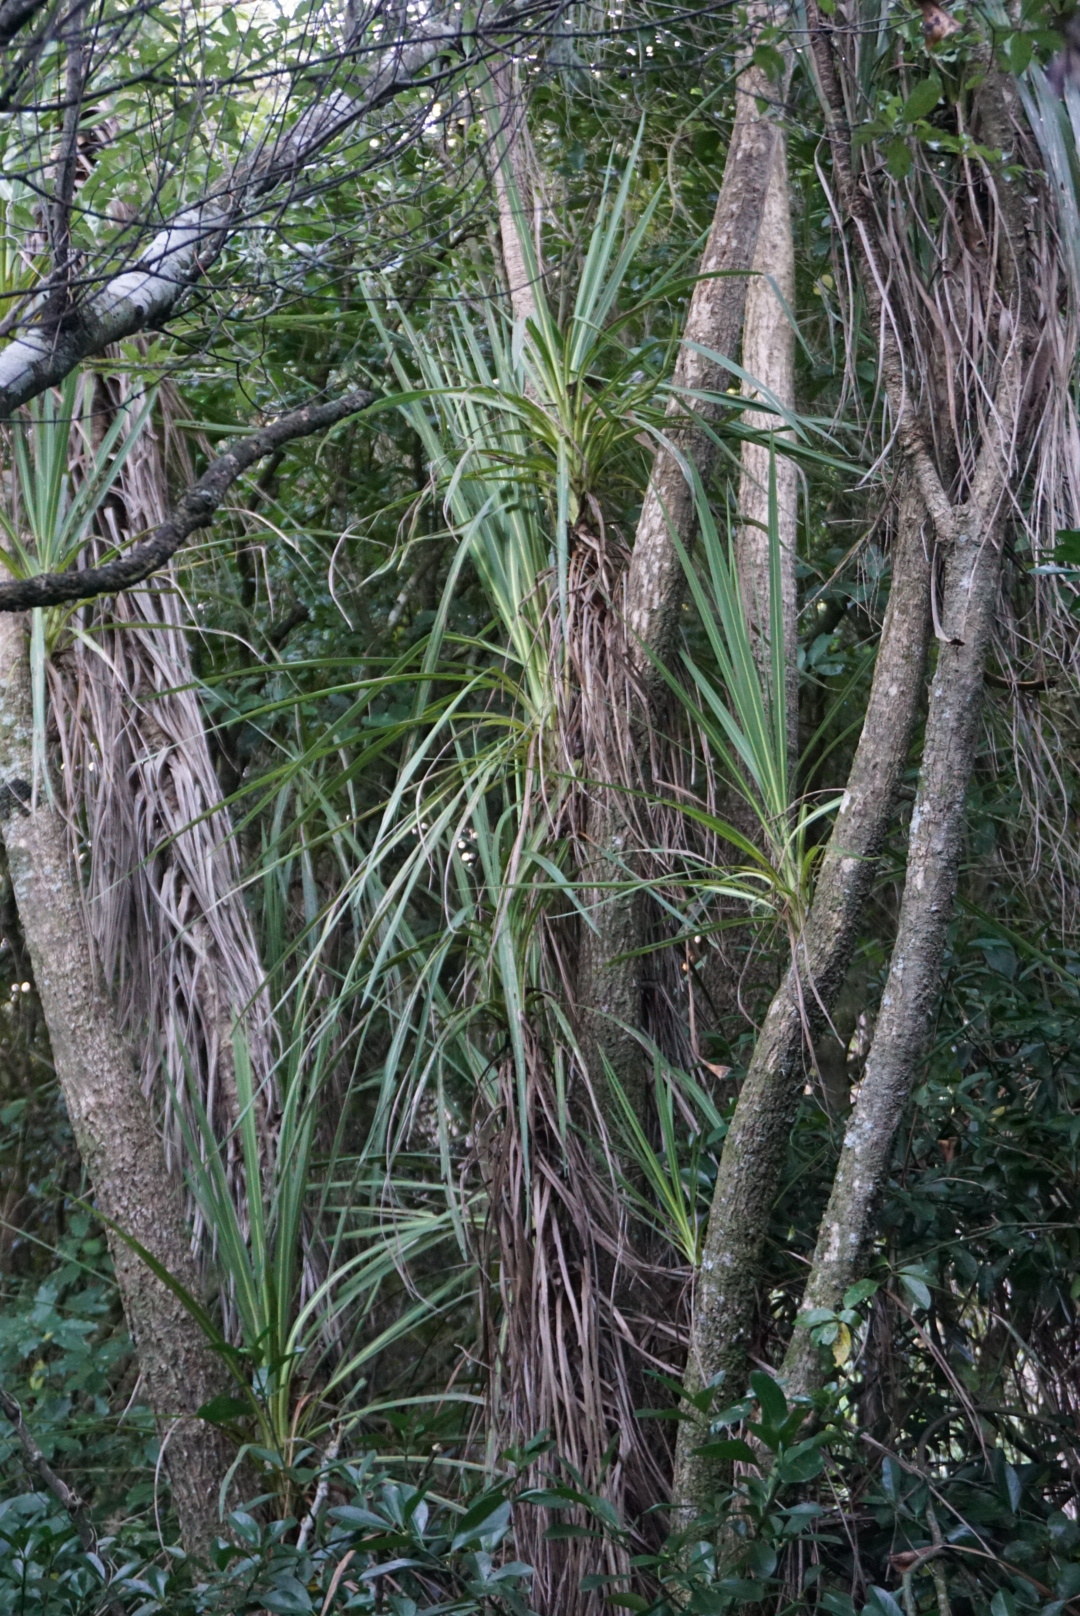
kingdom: Plantae
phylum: Tracheophyta
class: Liliopsida
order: Asparagales
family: Asparagaceae
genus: Cordyline
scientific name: Cordyline australis
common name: Cabbage-palm
